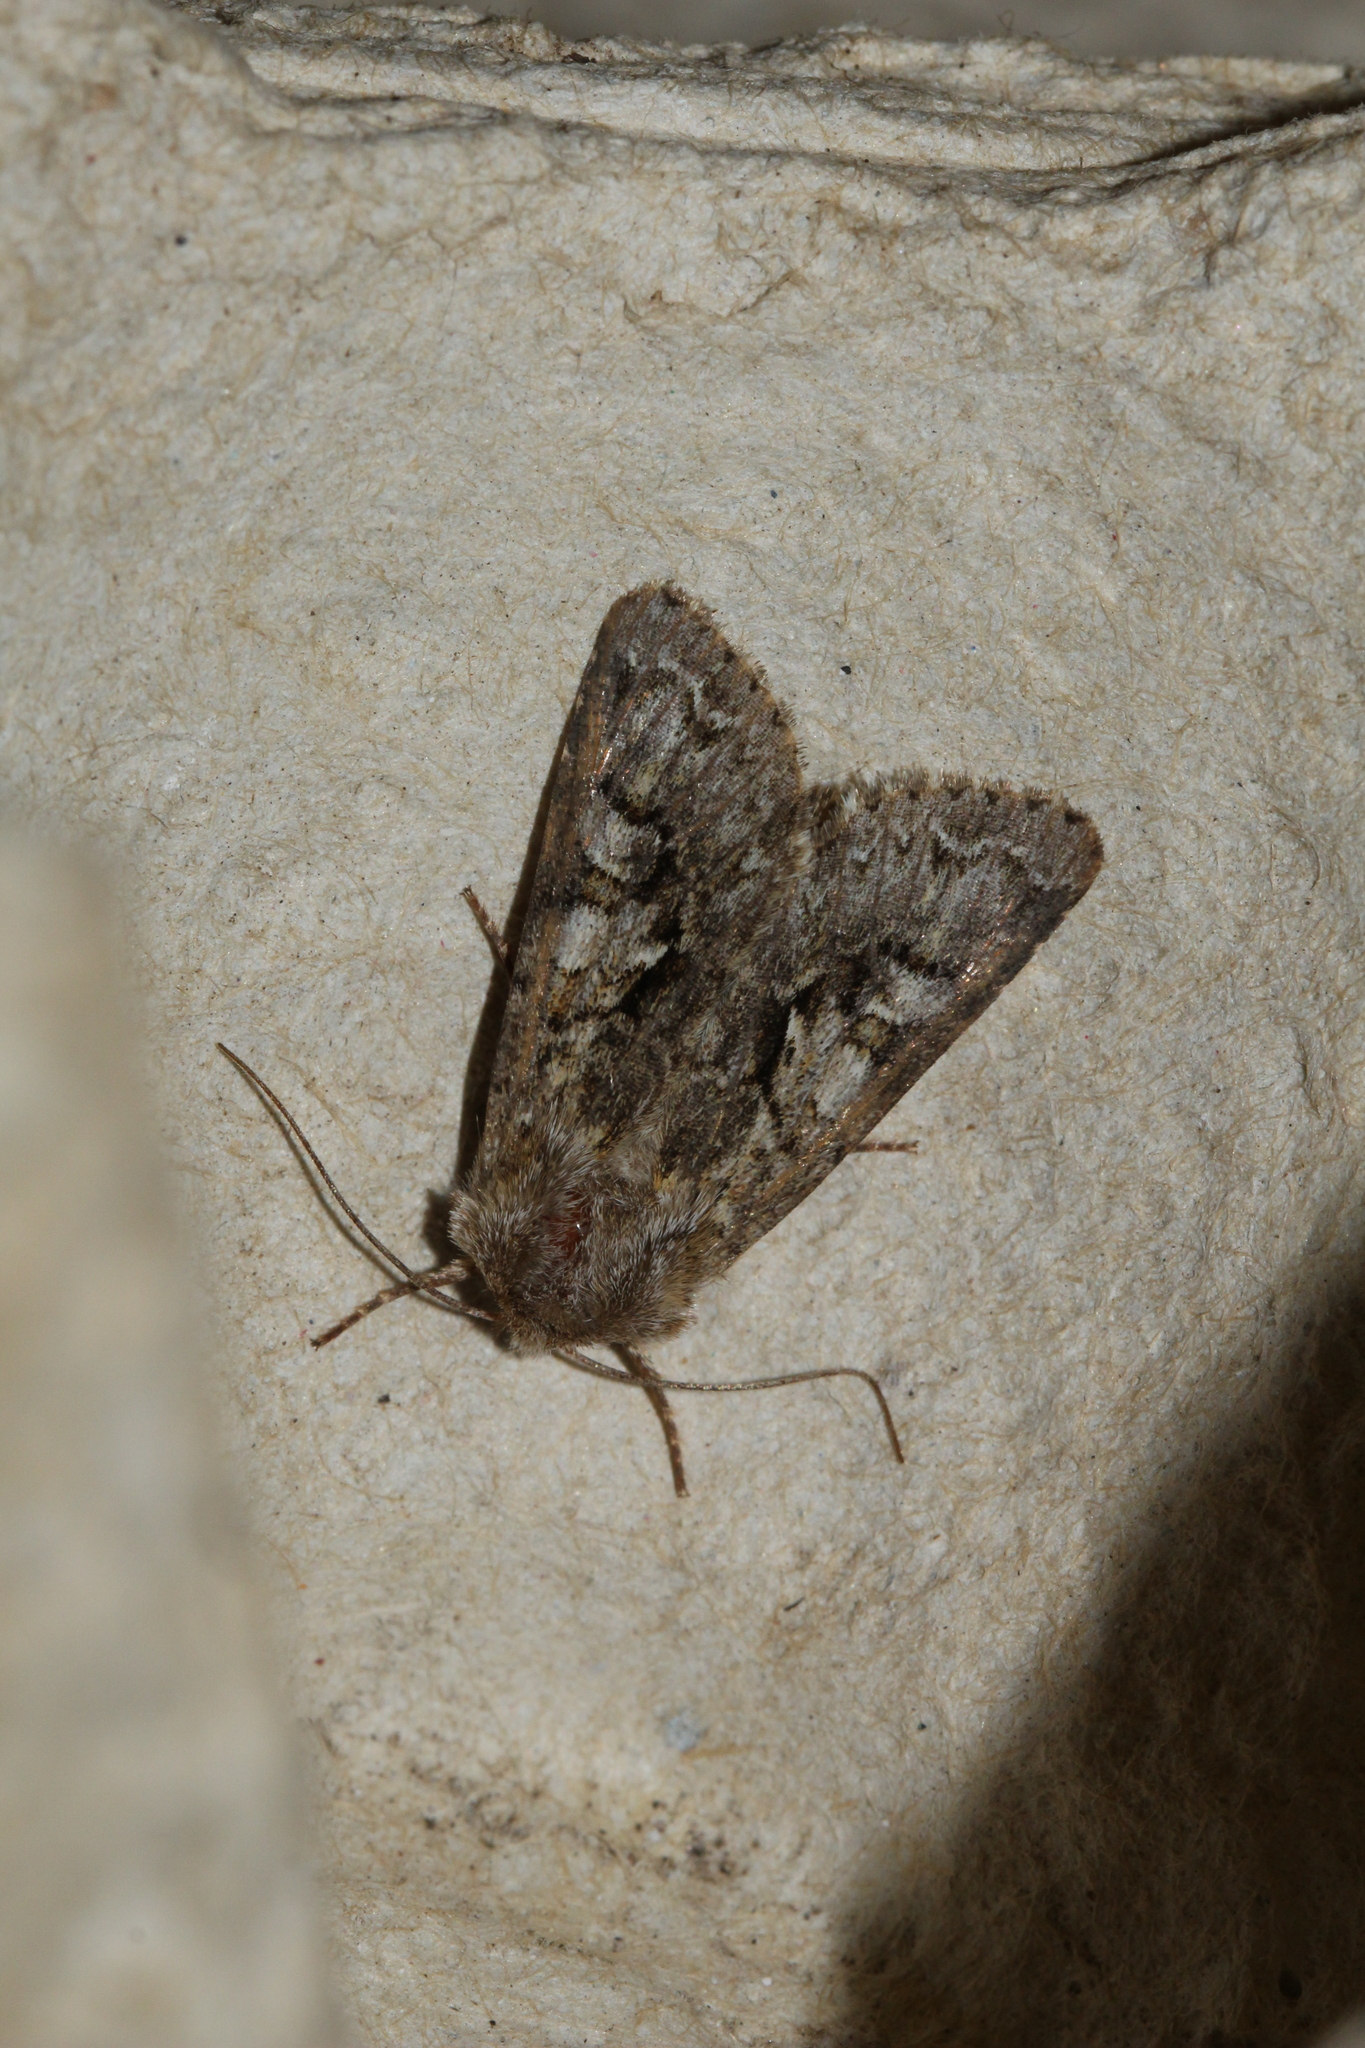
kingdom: Animalia
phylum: Arthropoda
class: Insecta
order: Lepidoptera
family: Noctuidae
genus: Hada
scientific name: Hada plebeja
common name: Shears
